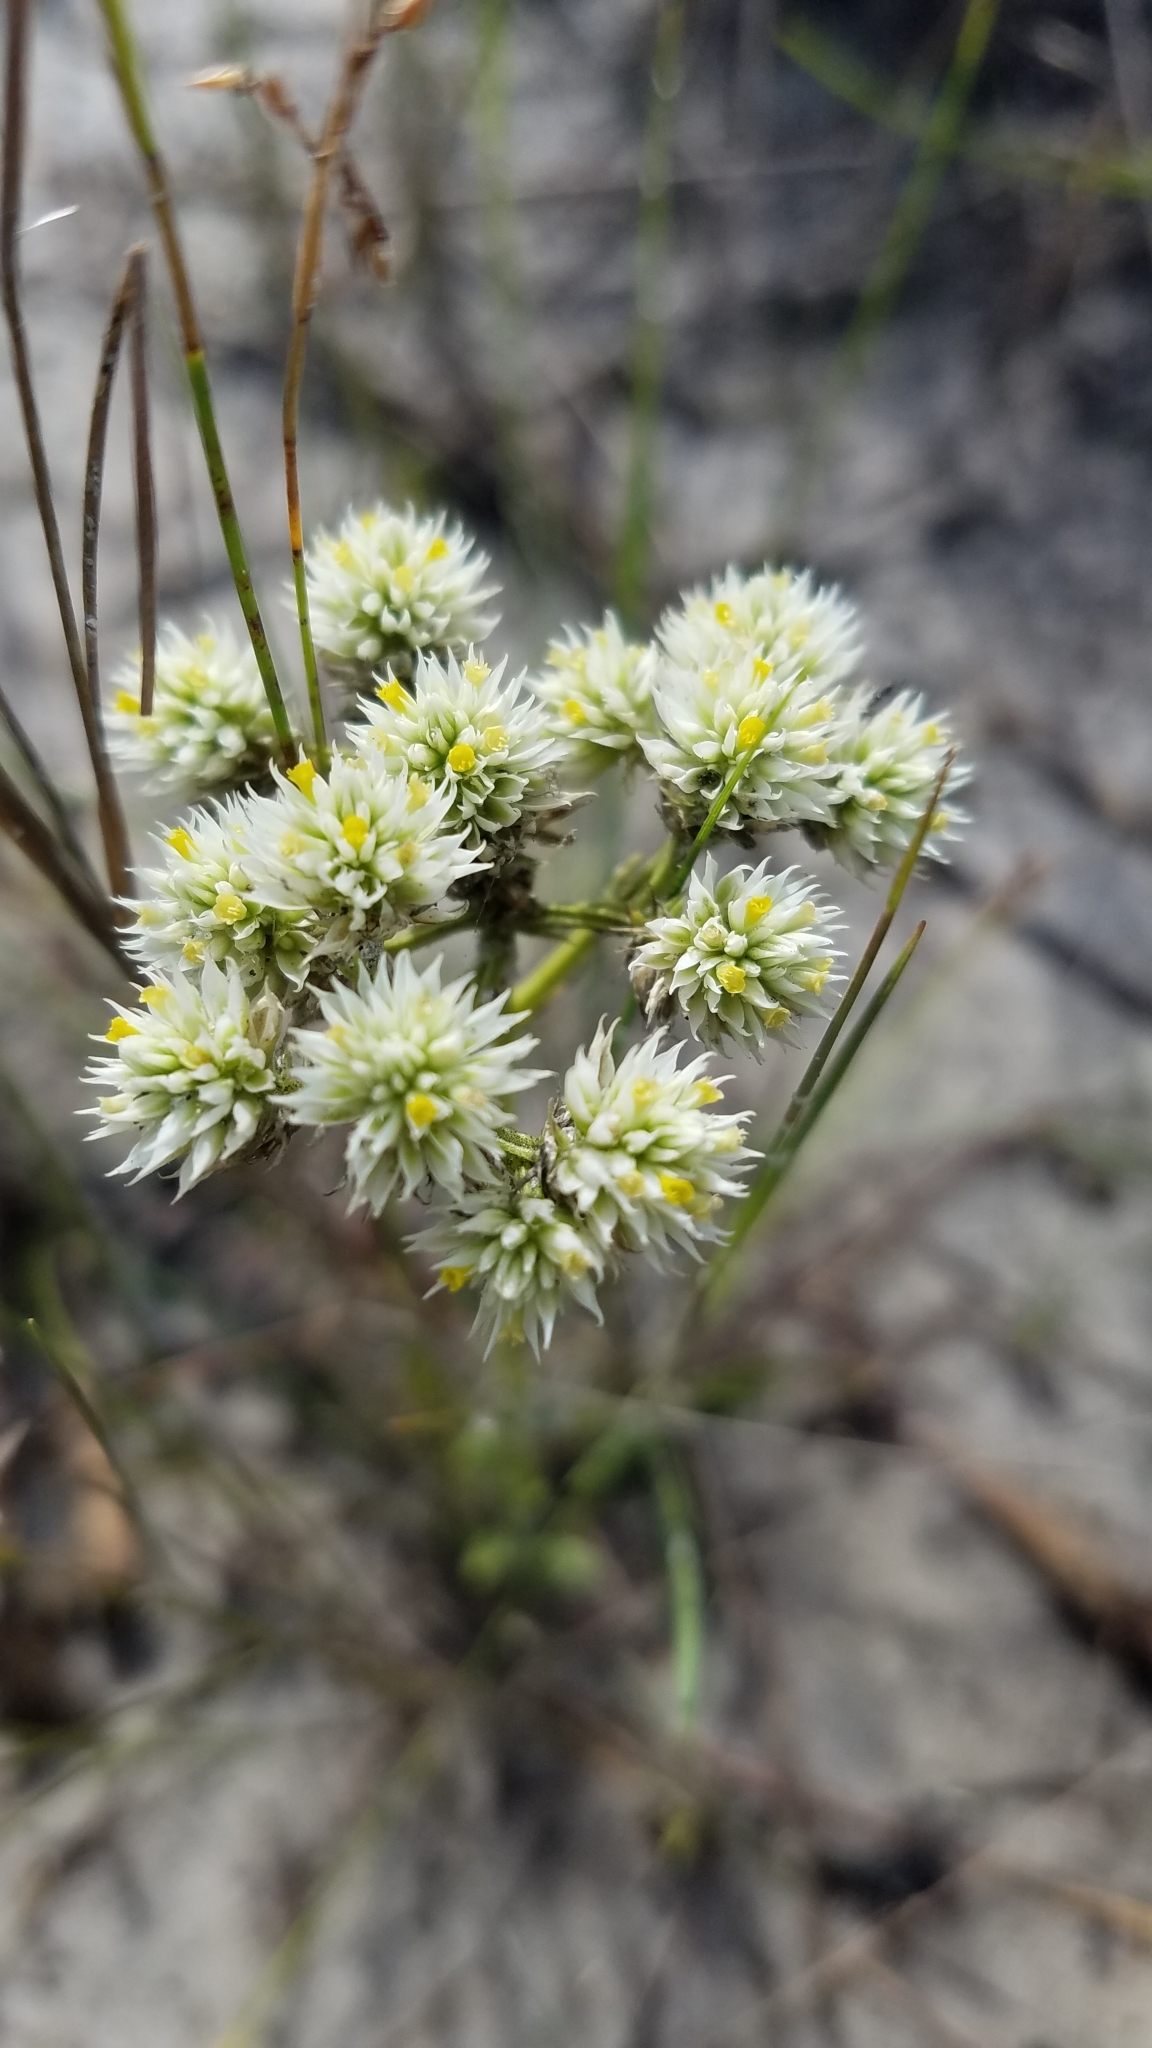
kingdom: Plantae
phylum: Tracheophyta
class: Magnoliopsida
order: Fabales
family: Polygalaceae
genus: Polygala
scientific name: Polygala baldwinii
